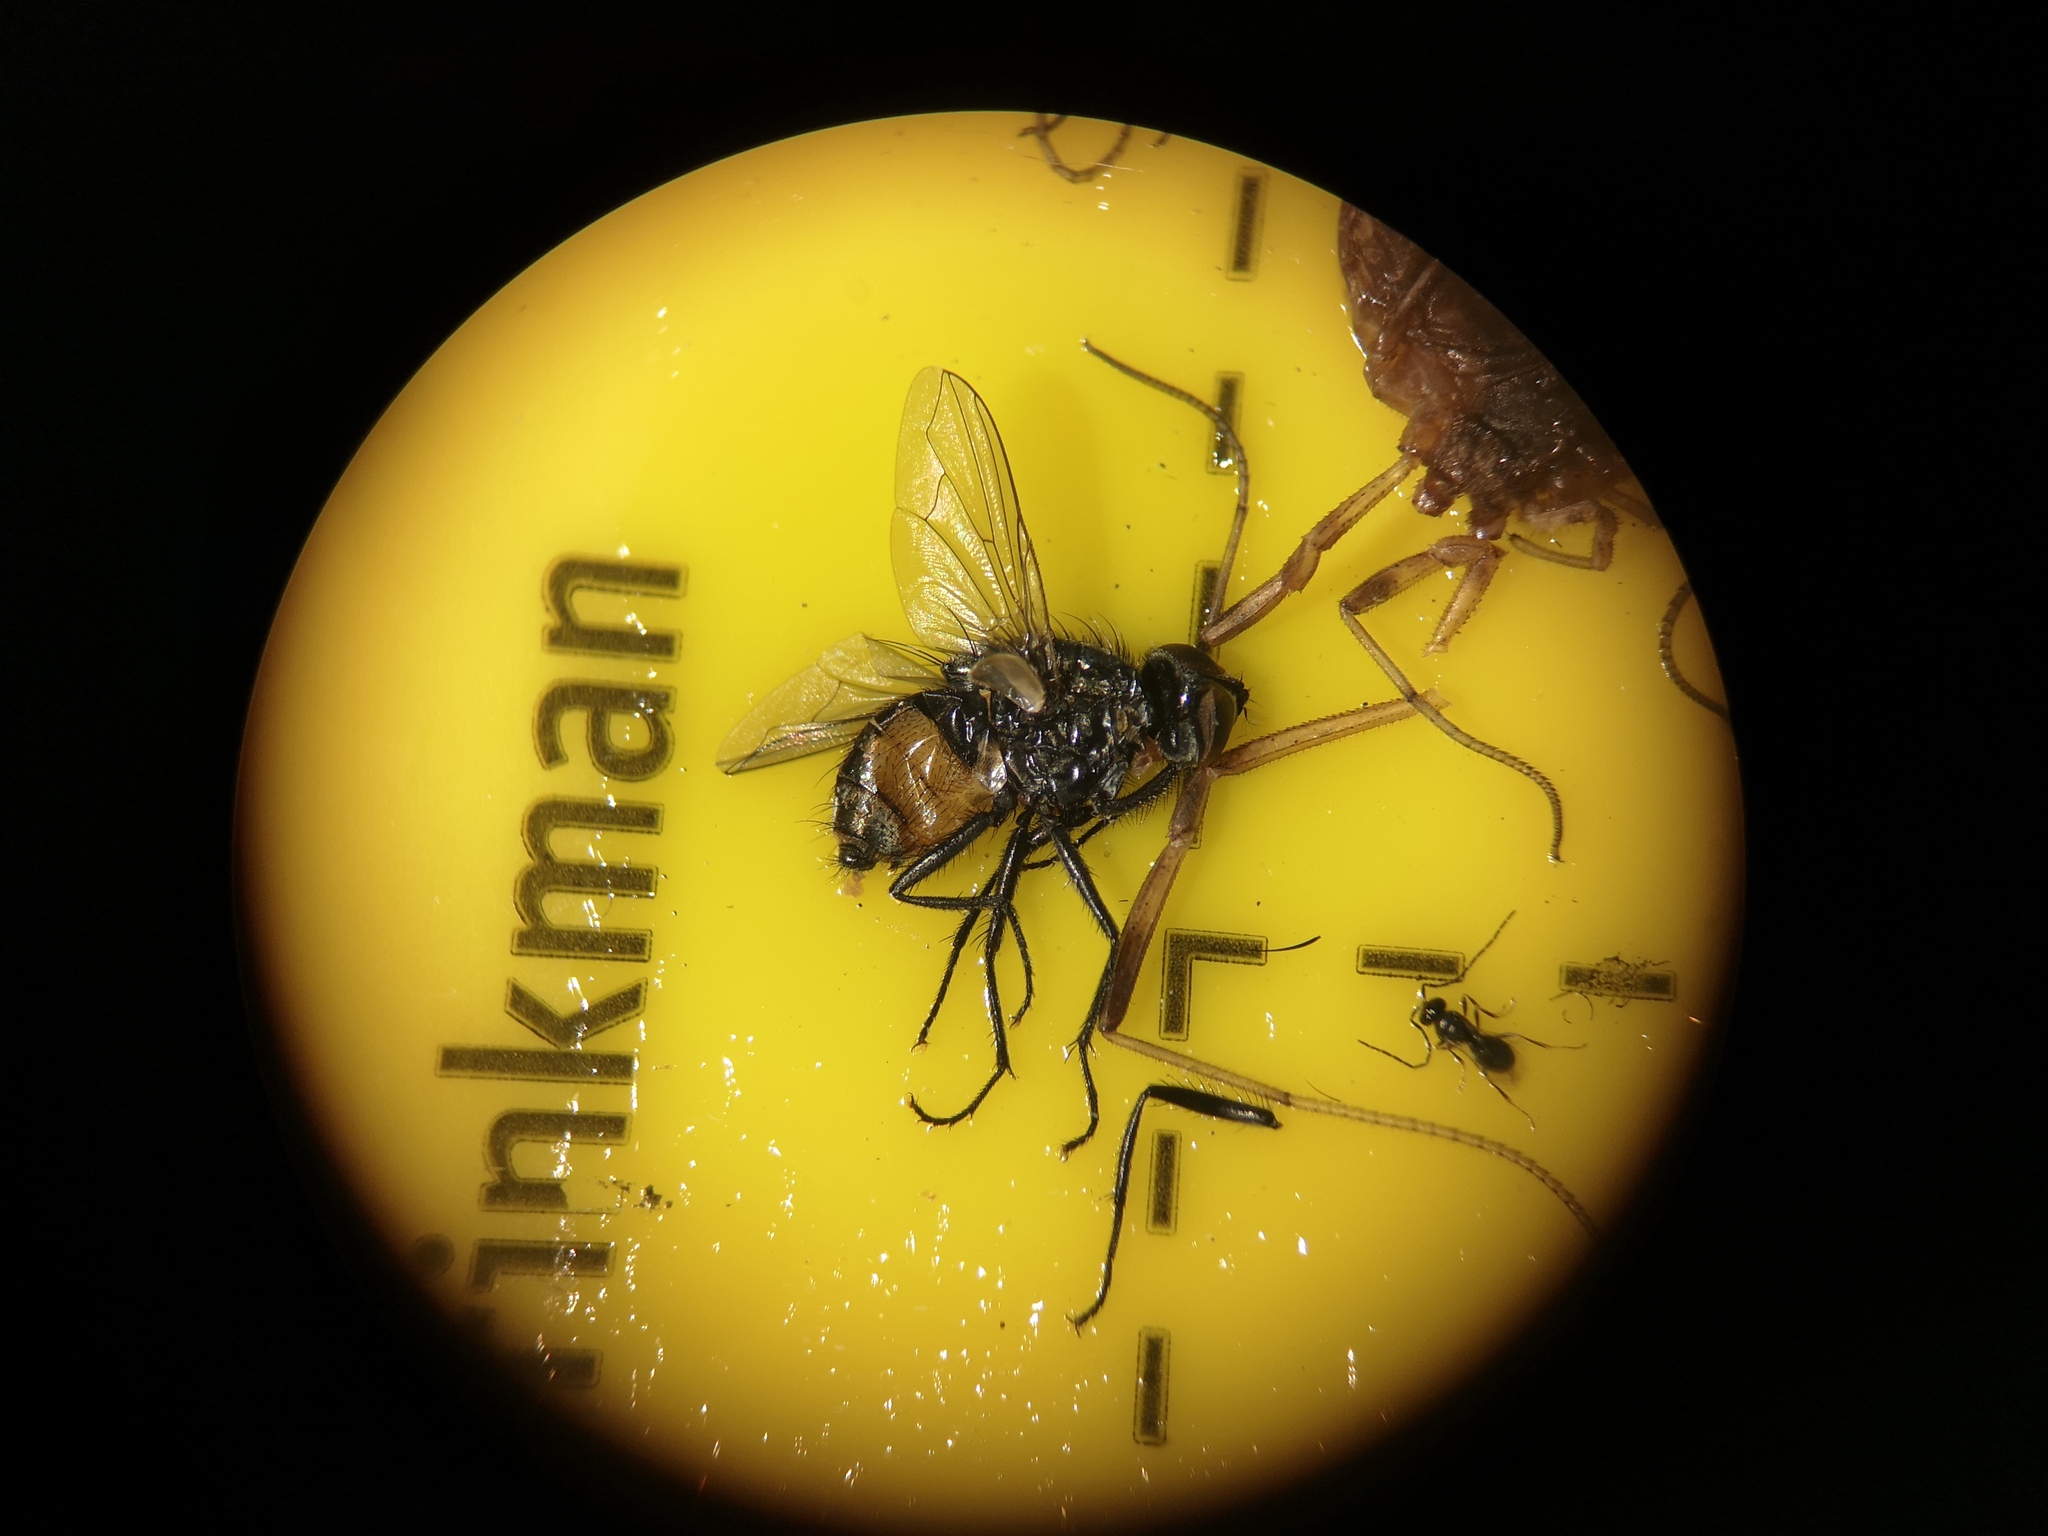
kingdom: Animalia
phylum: Arthropoda
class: Insecta
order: Diptera
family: Muscidae
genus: Musca
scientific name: Musca autumnalis
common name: Face fly
